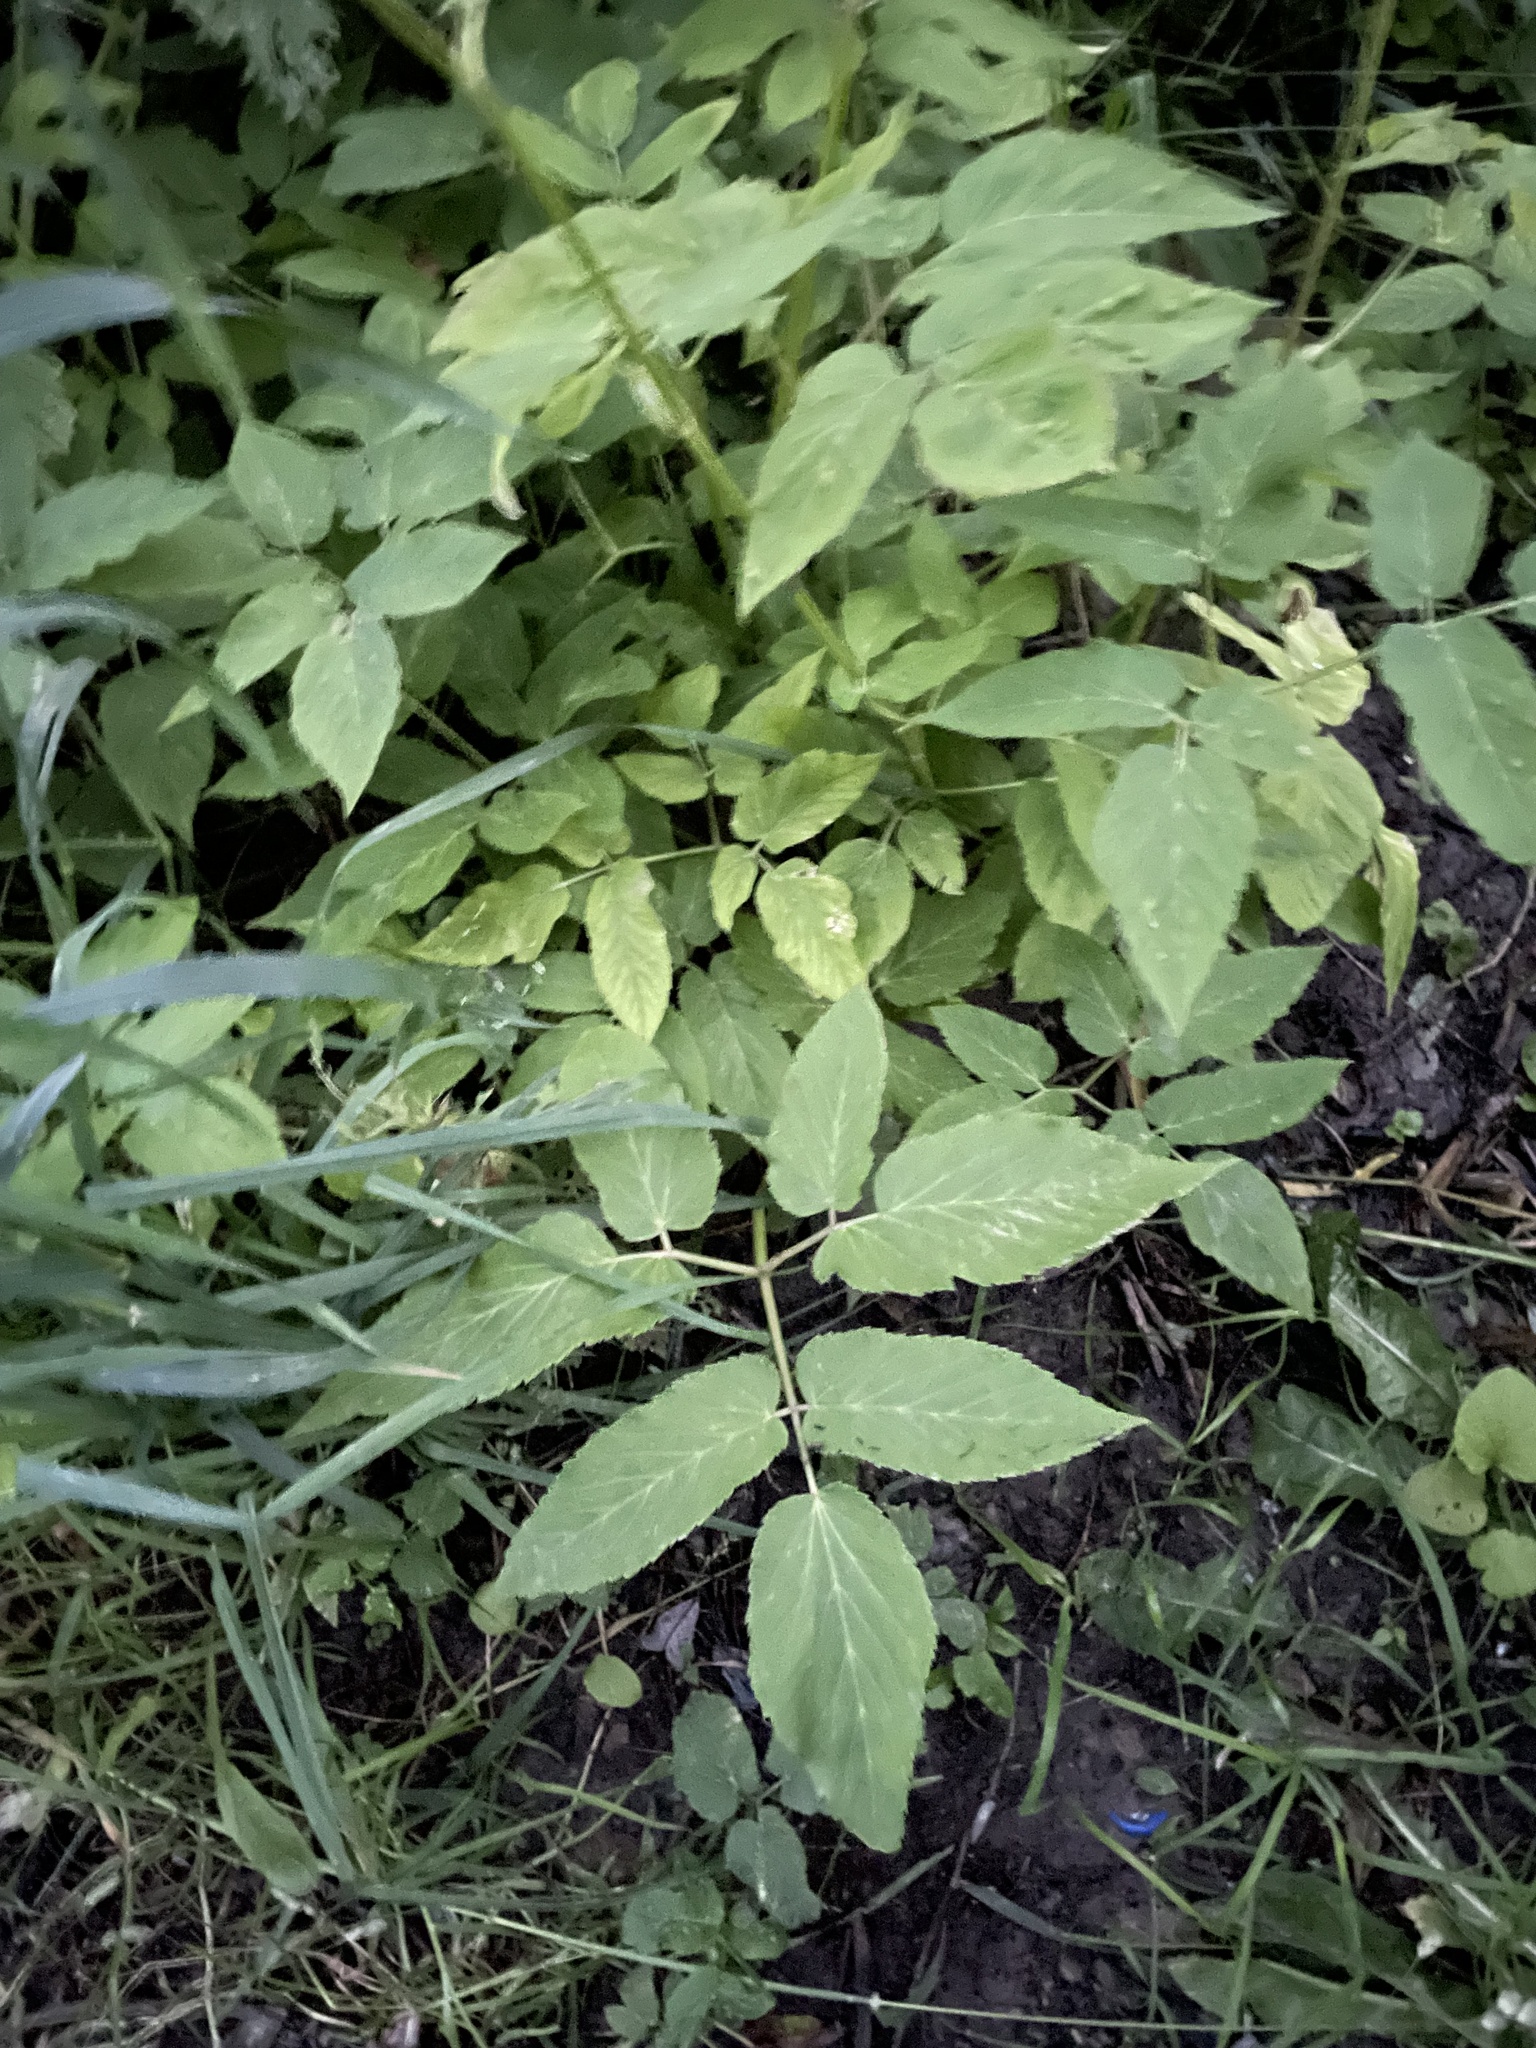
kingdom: Plantae
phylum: Tracheophyta
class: Magnoliopsida
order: Apiales
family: Apiaceae
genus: Aegopodium
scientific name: Aegopodium podagraria
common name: Ground-elder
